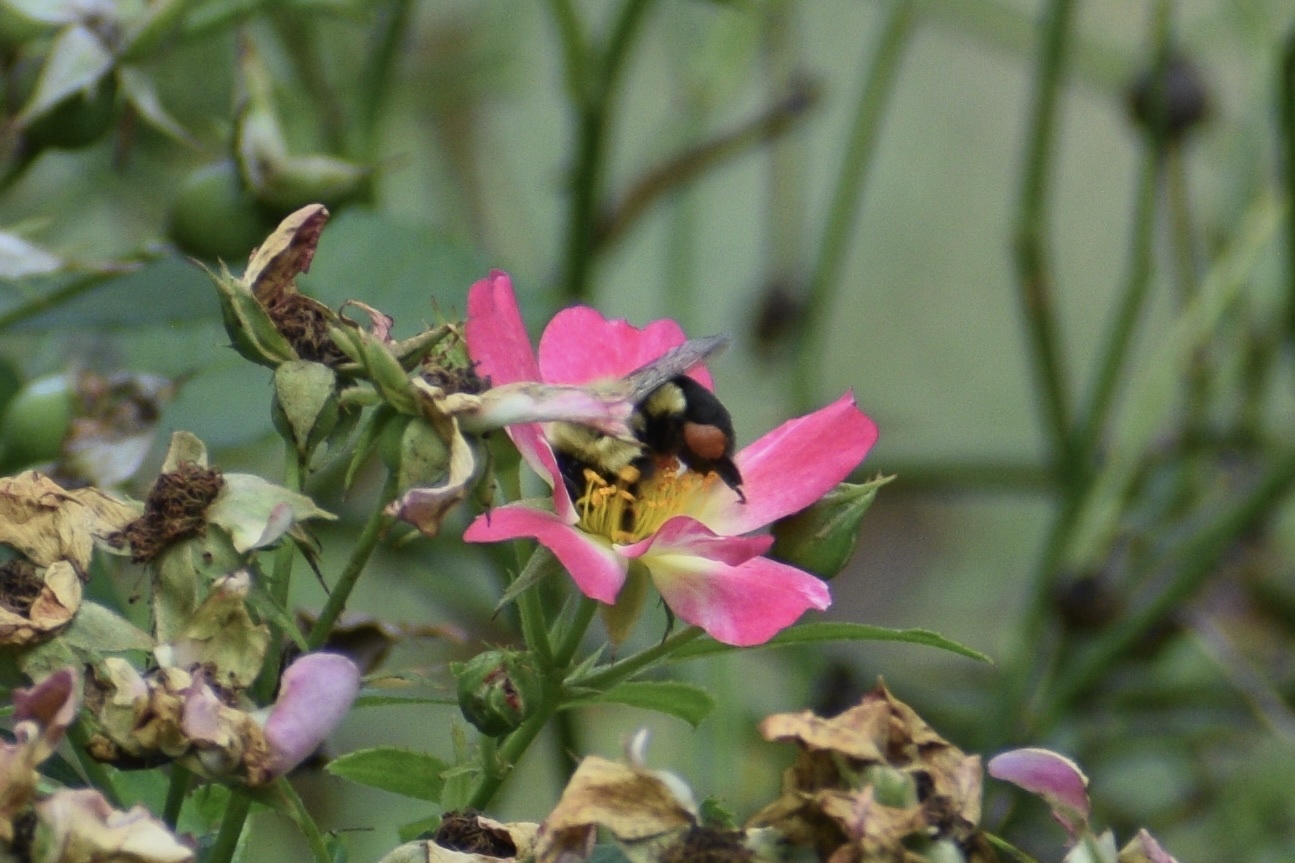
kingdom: Animalia
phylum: Arthropoda
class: Insecta
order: Hymenoptera
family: Apidae
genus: Bombus
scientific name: Bombus impatiens
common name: Common eastern bumble bee
